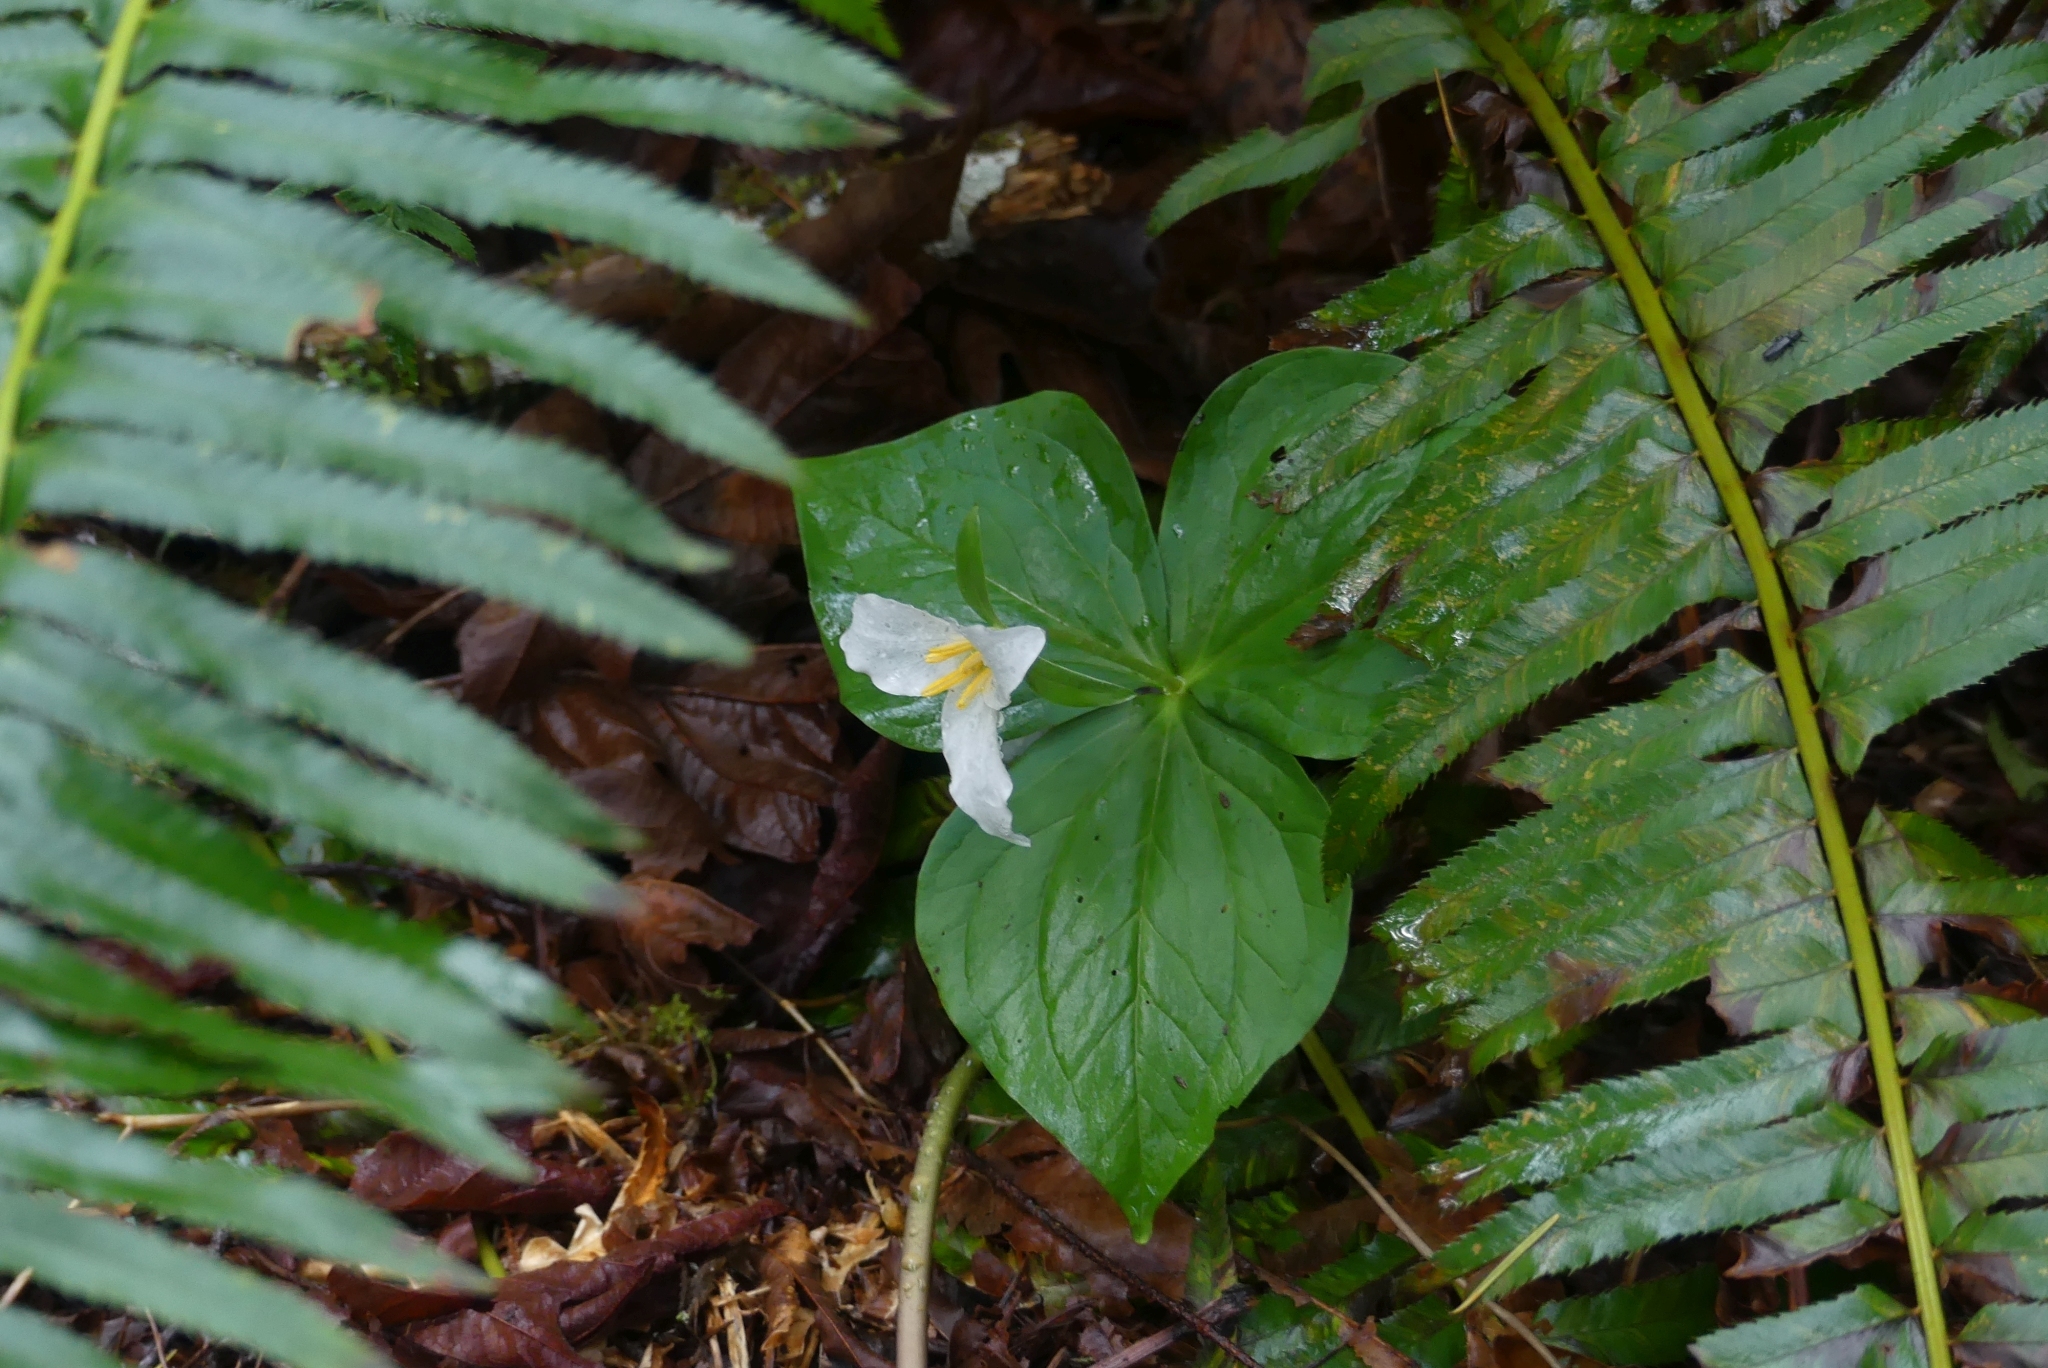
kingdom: Plantae
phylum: Tracheophyta
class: Liliopsida
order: Liliales
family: Melanthiaceae
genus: Trillium
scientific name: Trillium ovatum
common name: Pacific trillium
